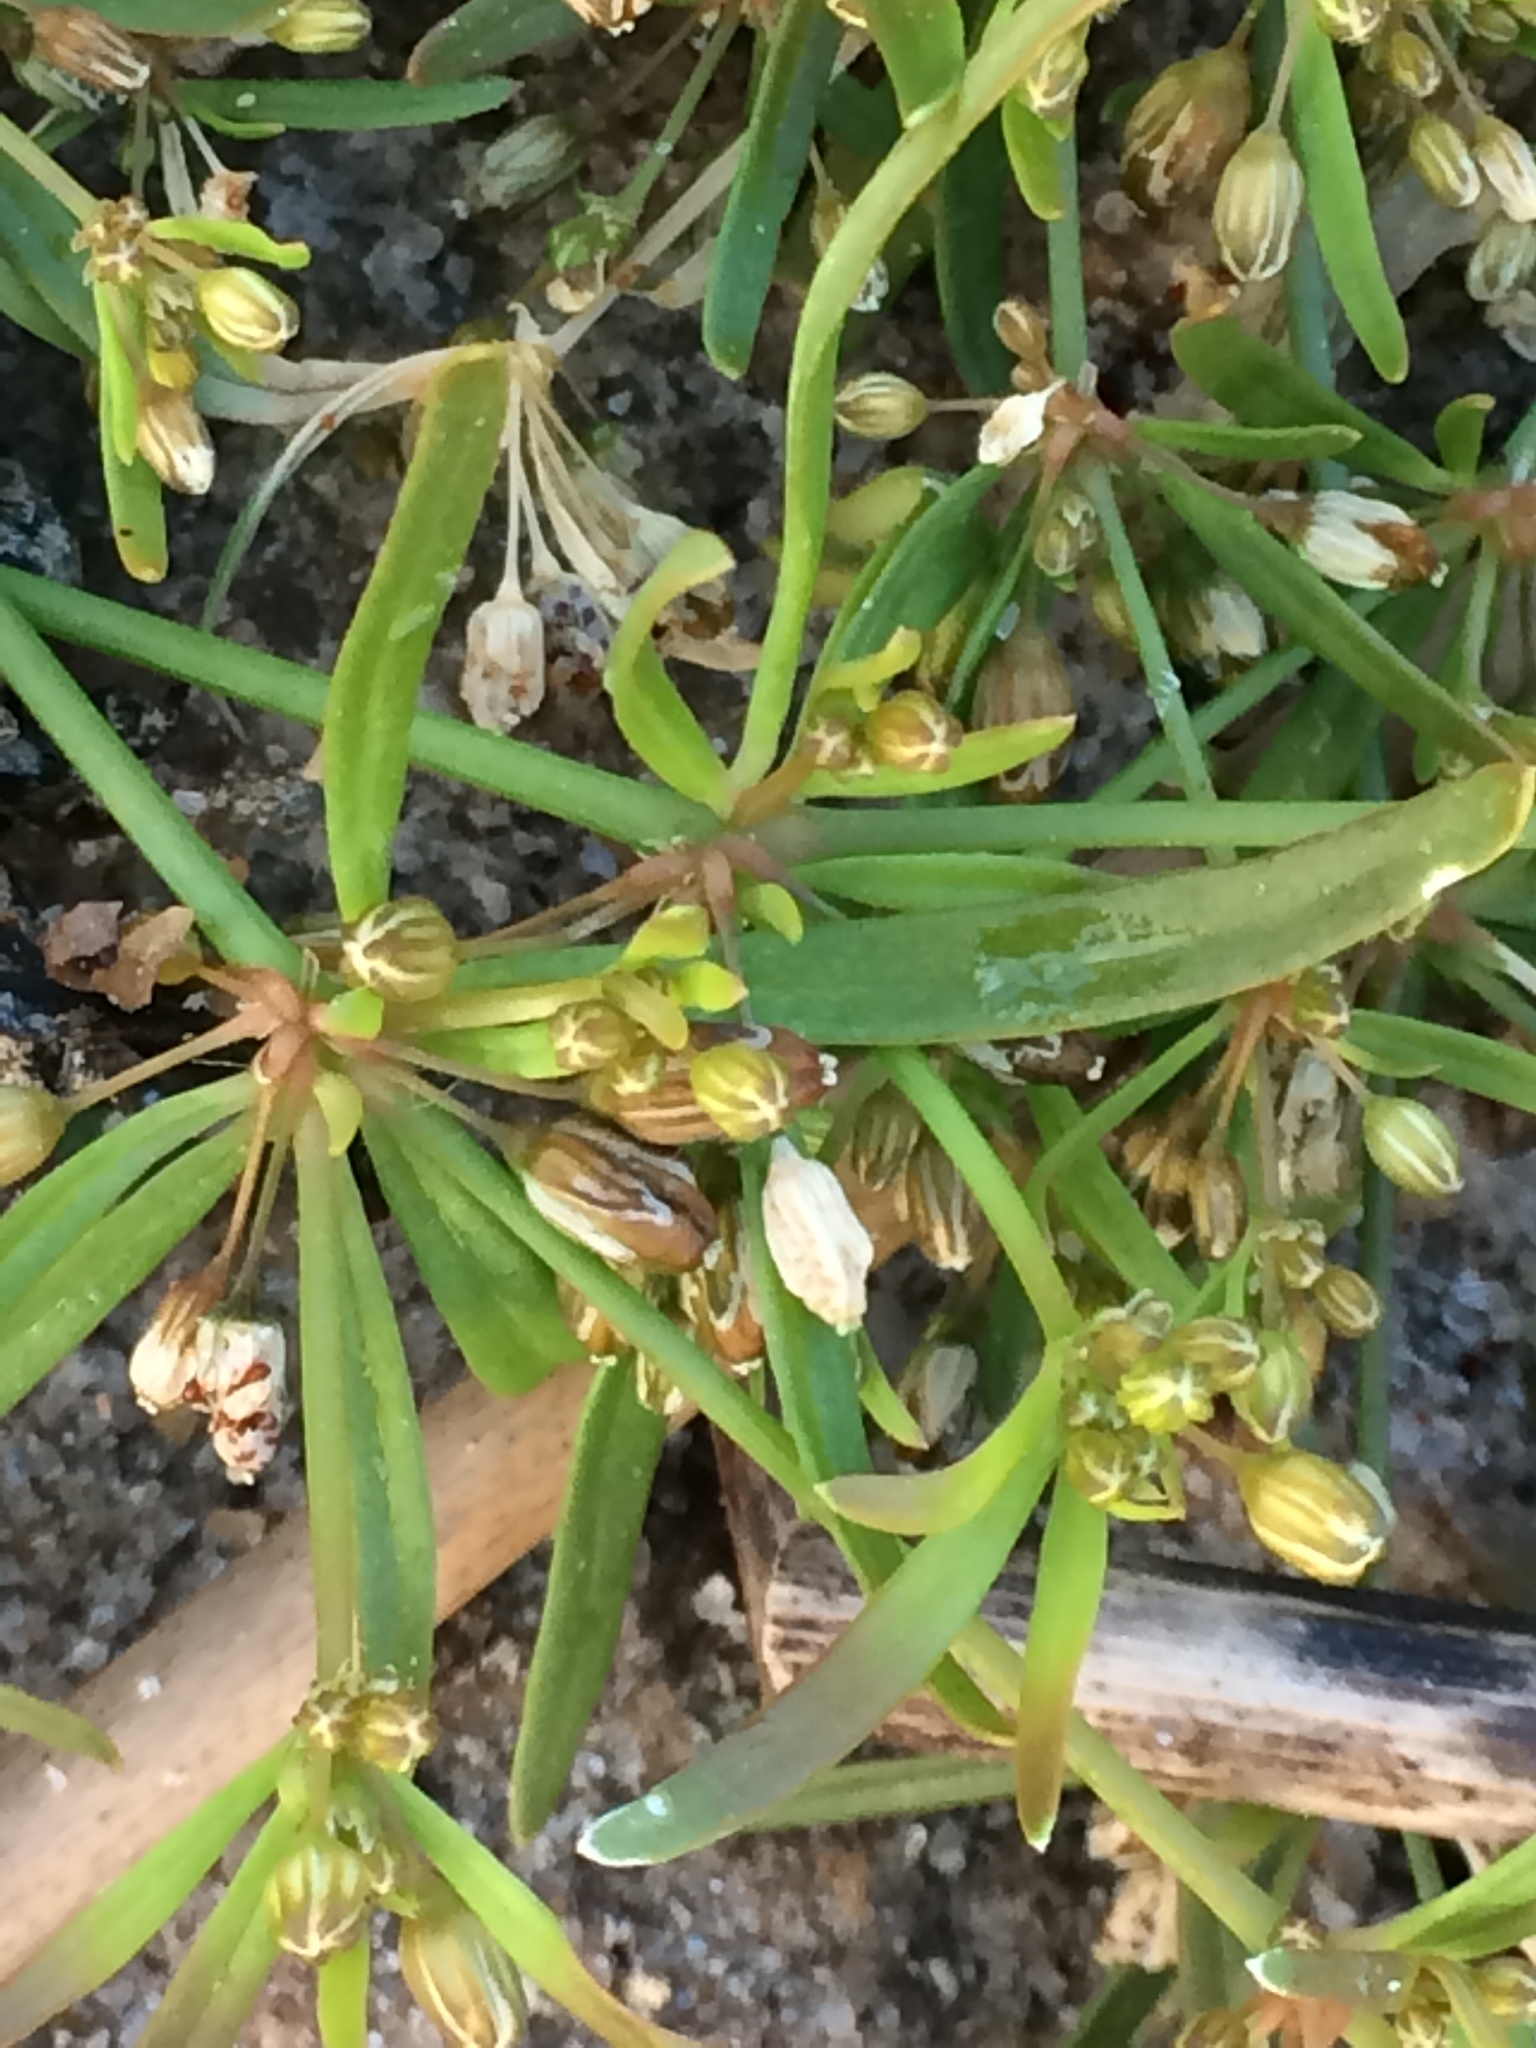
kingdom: Plantae
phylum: Tracheophyta
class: Magnoliopsida
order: Caryophyllales
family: Molluginaceae
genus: Mollugo
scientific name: Mollugo verticillata
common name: Green carpetweed
